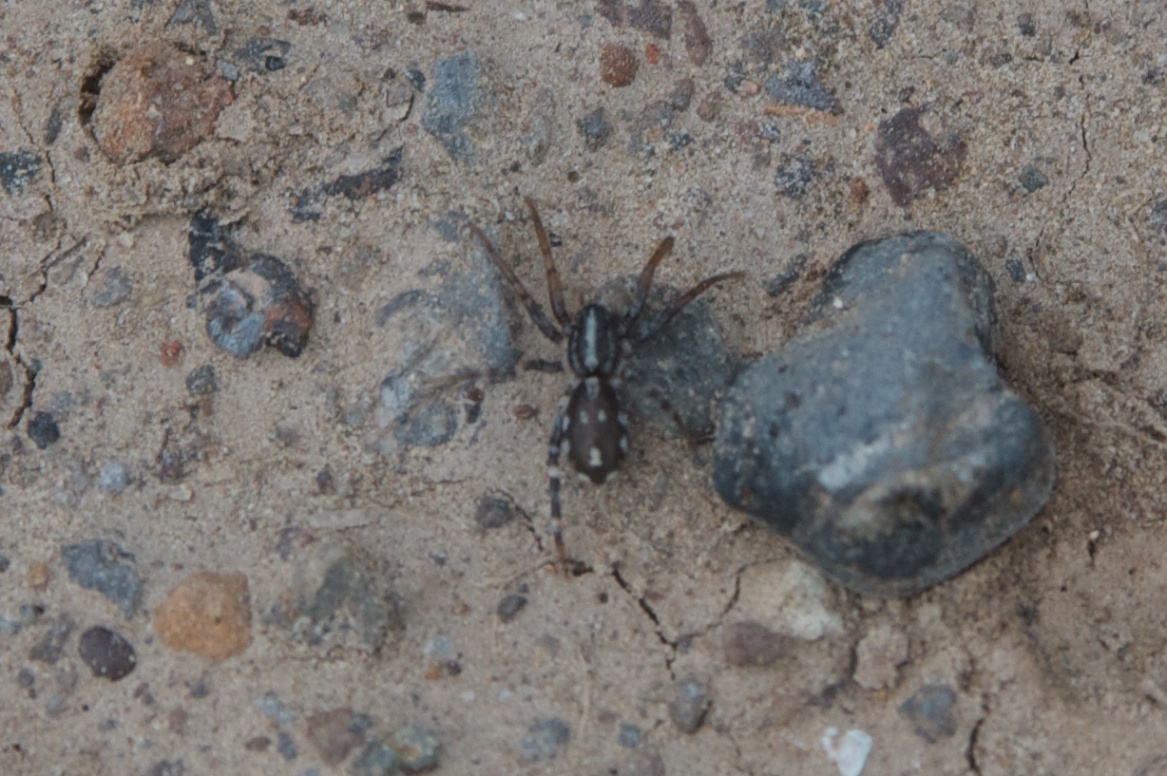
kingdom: Animalia
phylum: Arthropoda
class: Arachnida
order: Araneae
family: Corinnidae
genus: Nyssus
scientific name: Nyssus coloripes
